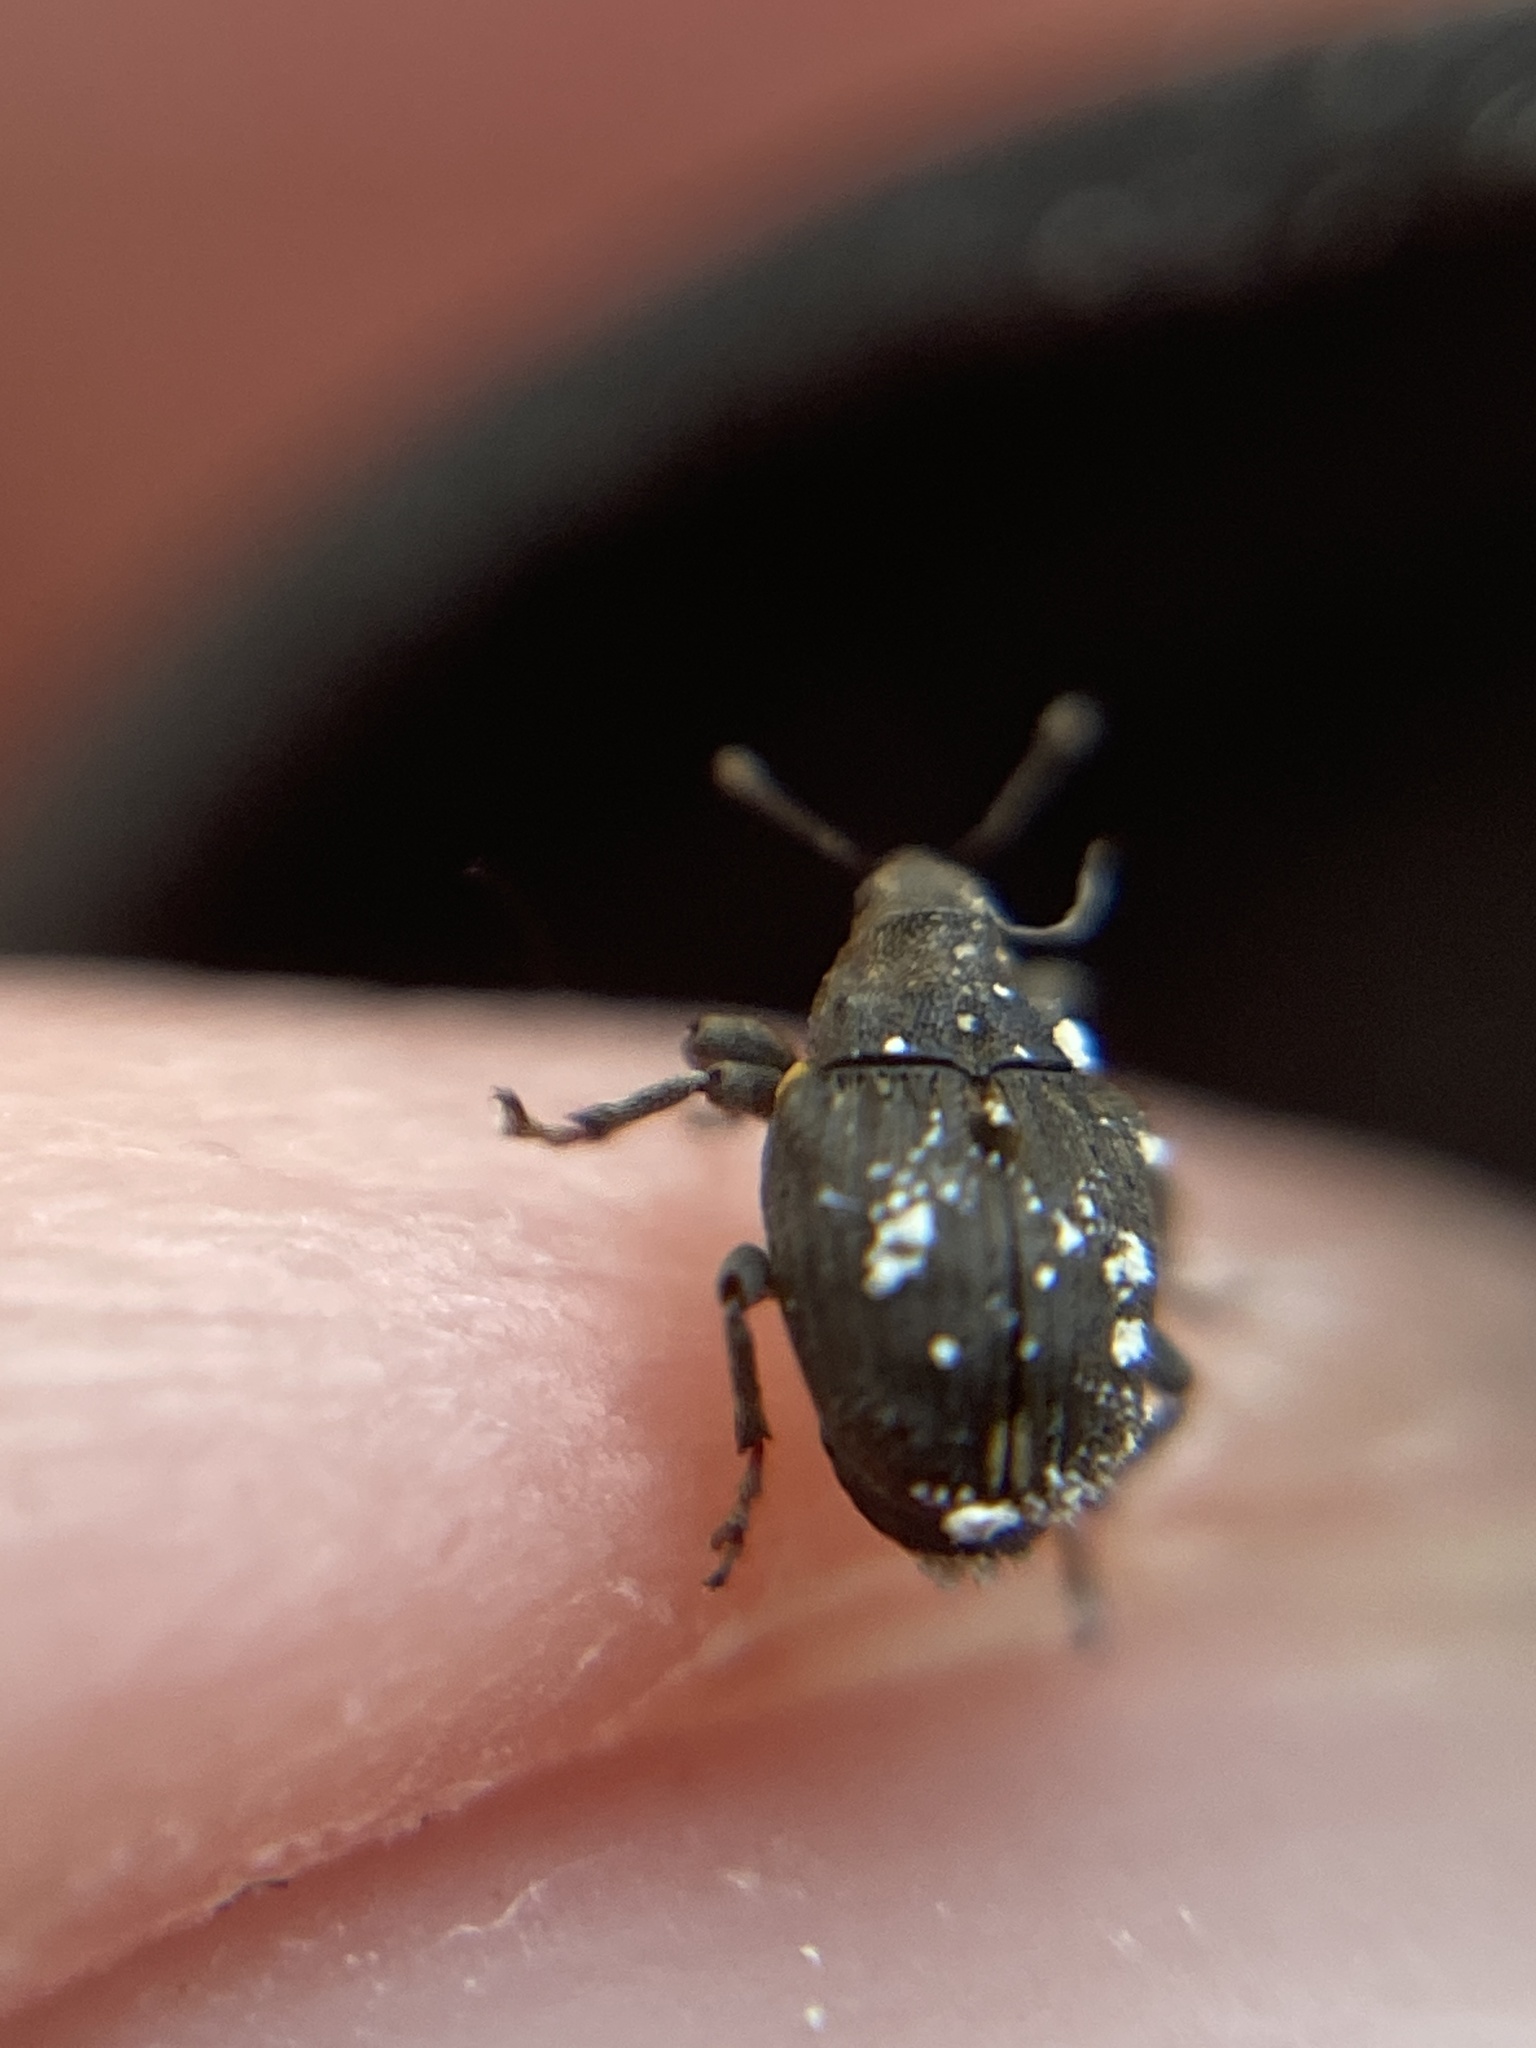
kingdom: Animalia
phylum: Arthropoda
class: Insecta
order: Coleoptera
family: Curculionidae
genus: Stenocarus
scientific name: Stenocarus ruficornis
